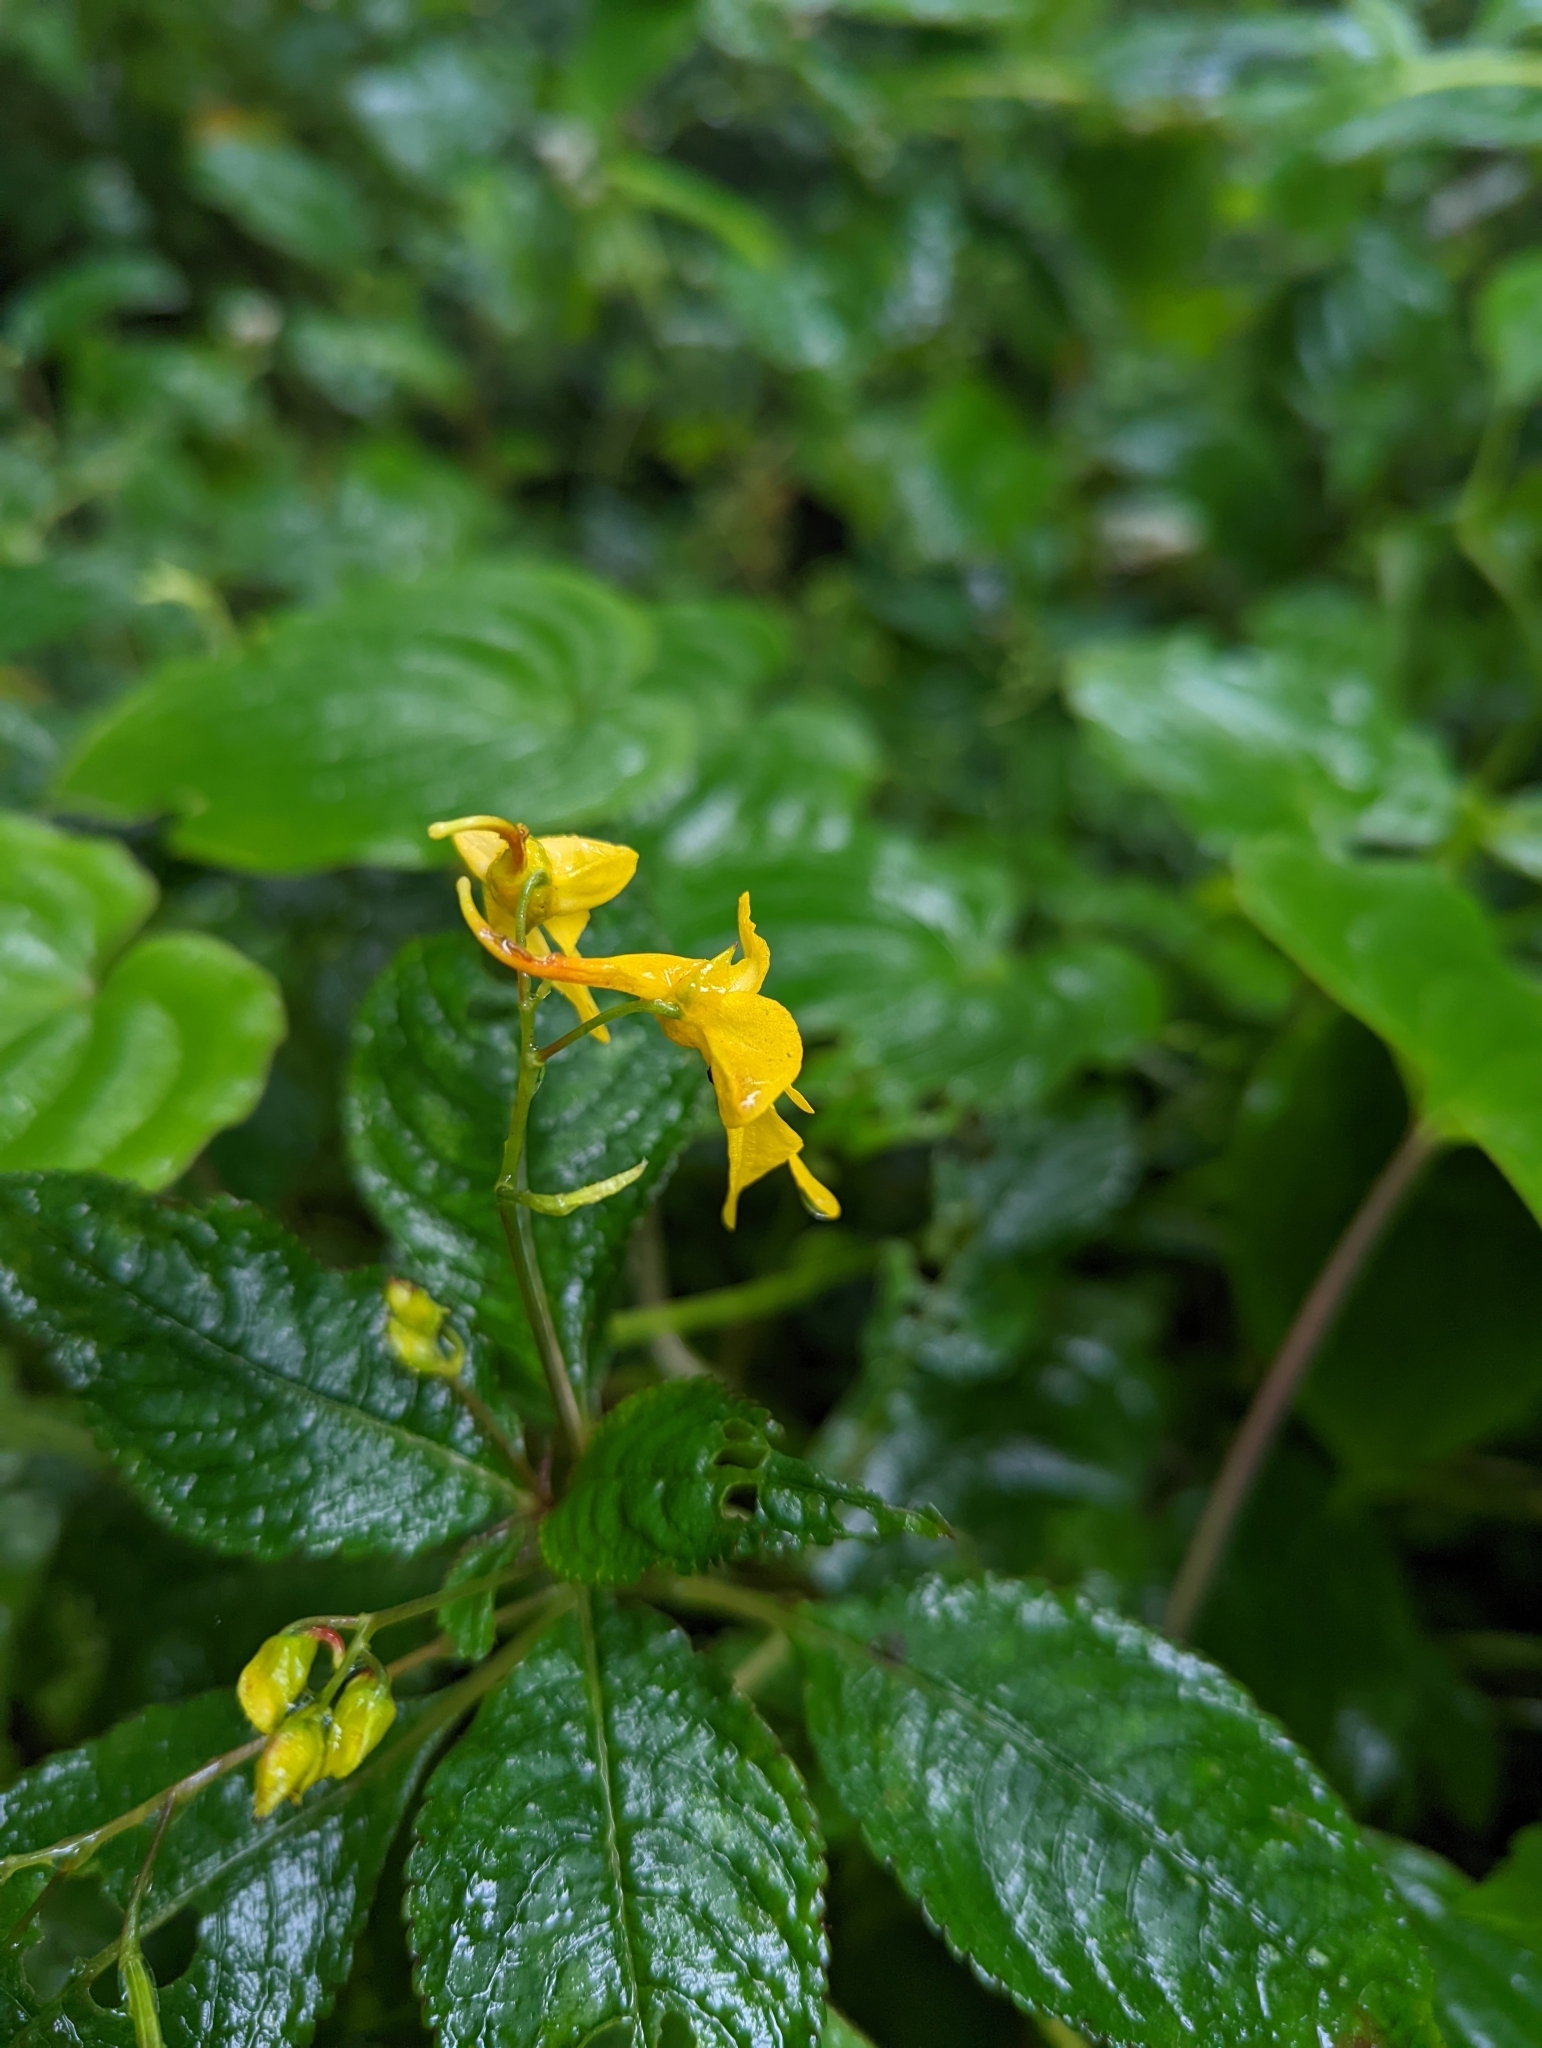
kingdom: Plantae
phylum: Tracheophyta
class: Magnoliopsida
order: Ericales
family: Balsaminaceae
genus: Impatiens
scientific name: Impatiens longiloba
